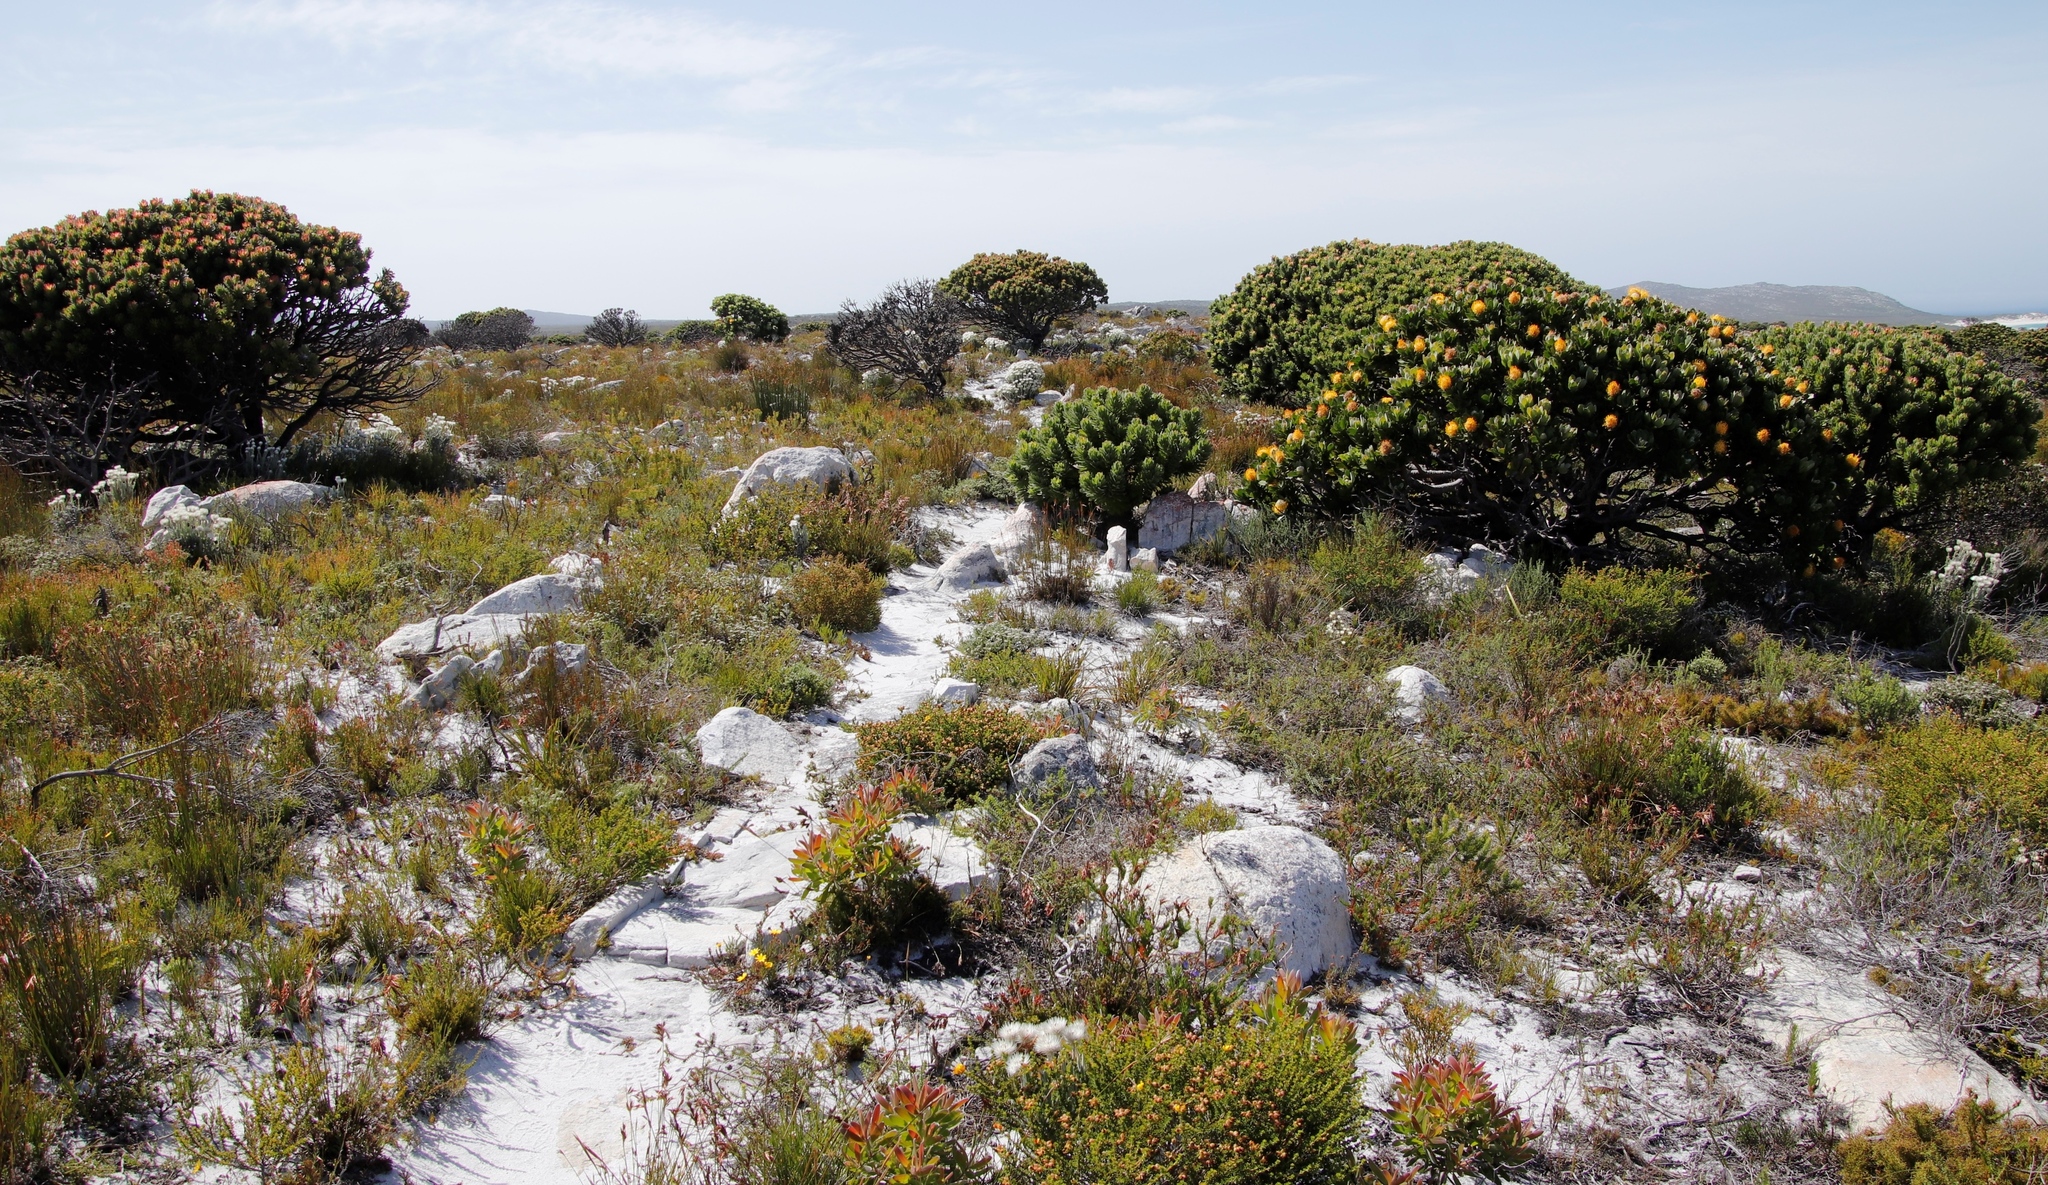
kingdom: Plantae
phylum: Tracheophyta
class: Magnoliopsida
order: Proteales
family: Proteaceae
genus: Leucospermum
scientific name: Leucospermum conocarpodendron
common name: Tree pincushion
